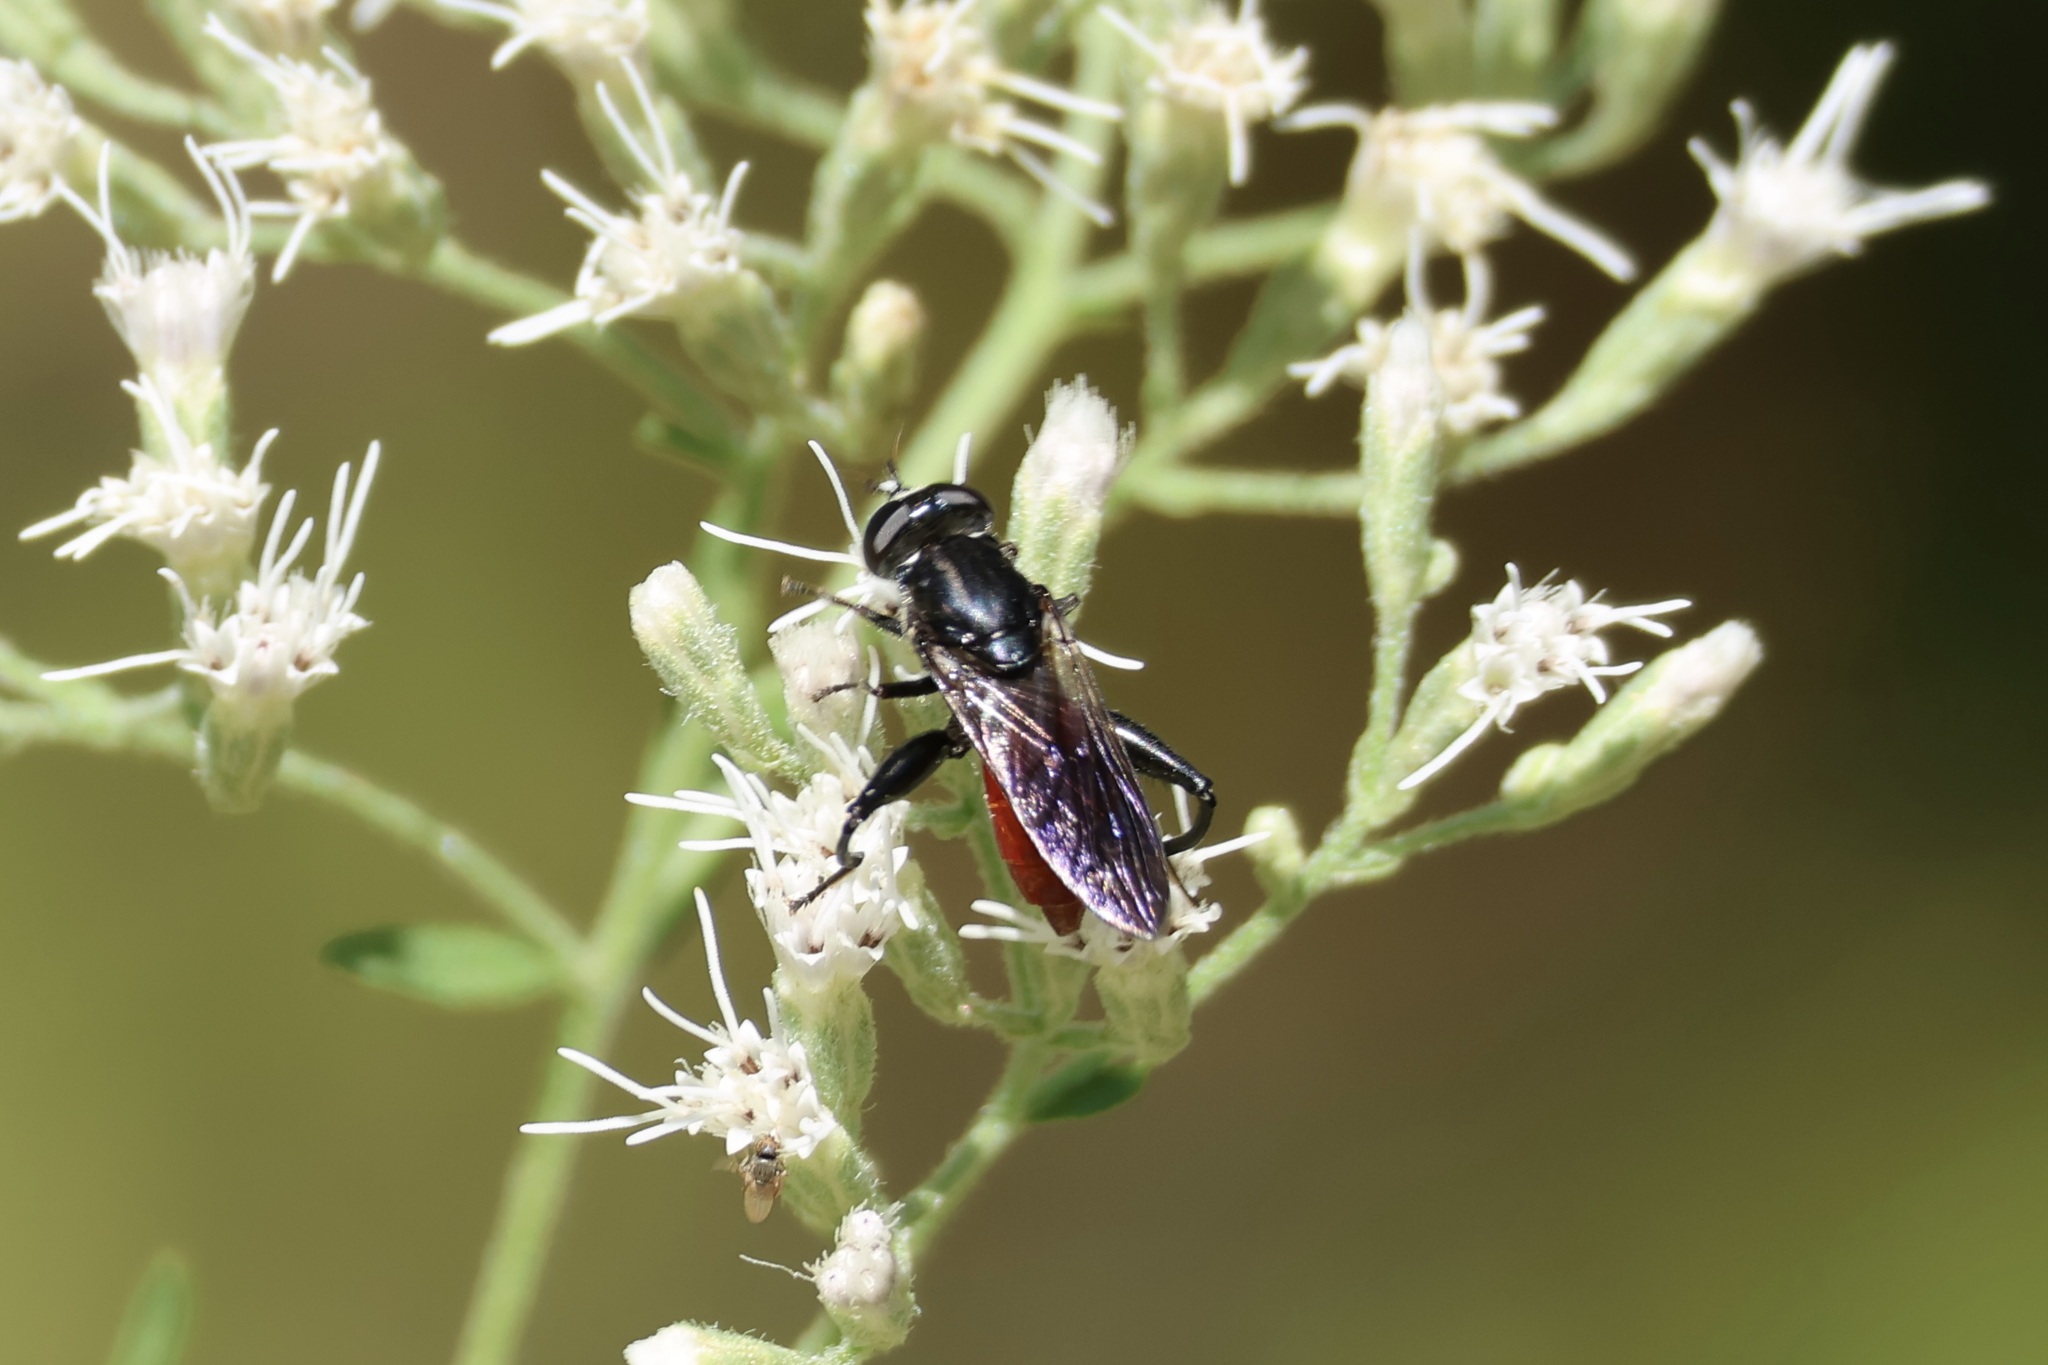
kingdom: Animalia
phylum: Arthropoda
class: Insecta
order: Diptera
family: Syrphidae
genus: Chalcosyrphus
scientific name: Chalcosyrphus piger
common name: Short-haired leafwalker
